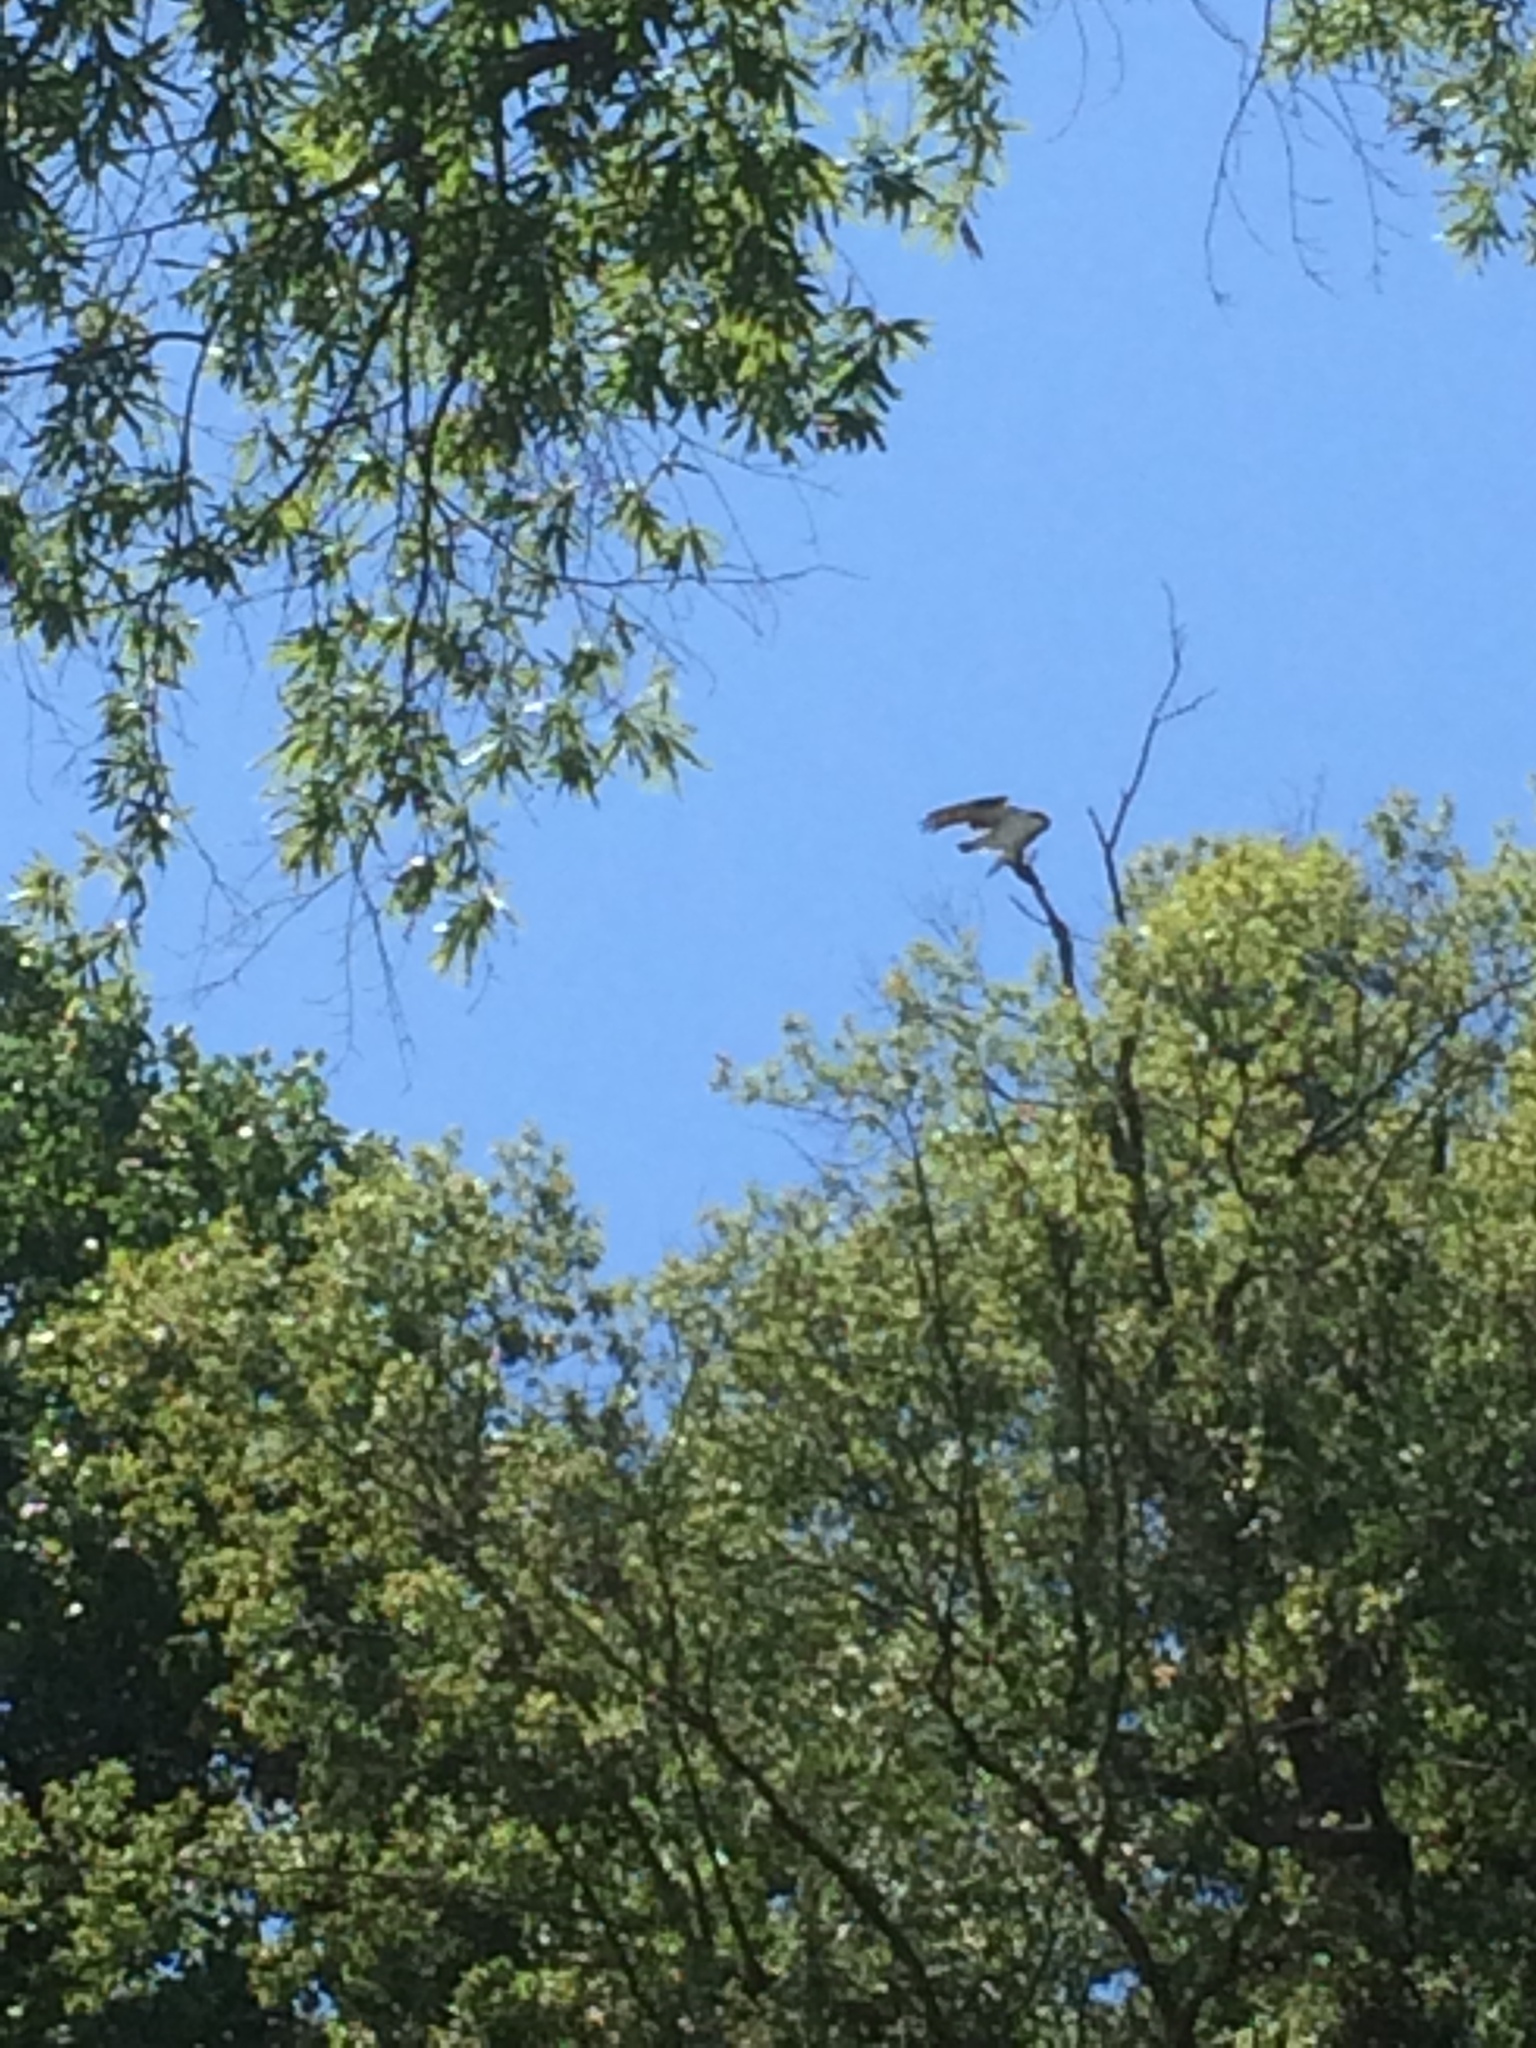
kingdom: Animalia
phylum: Chordata
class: Aves
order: Accipitriformes
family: Pandionidae
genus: Pandion
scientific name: Pandion haliaetus
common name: Osprey
